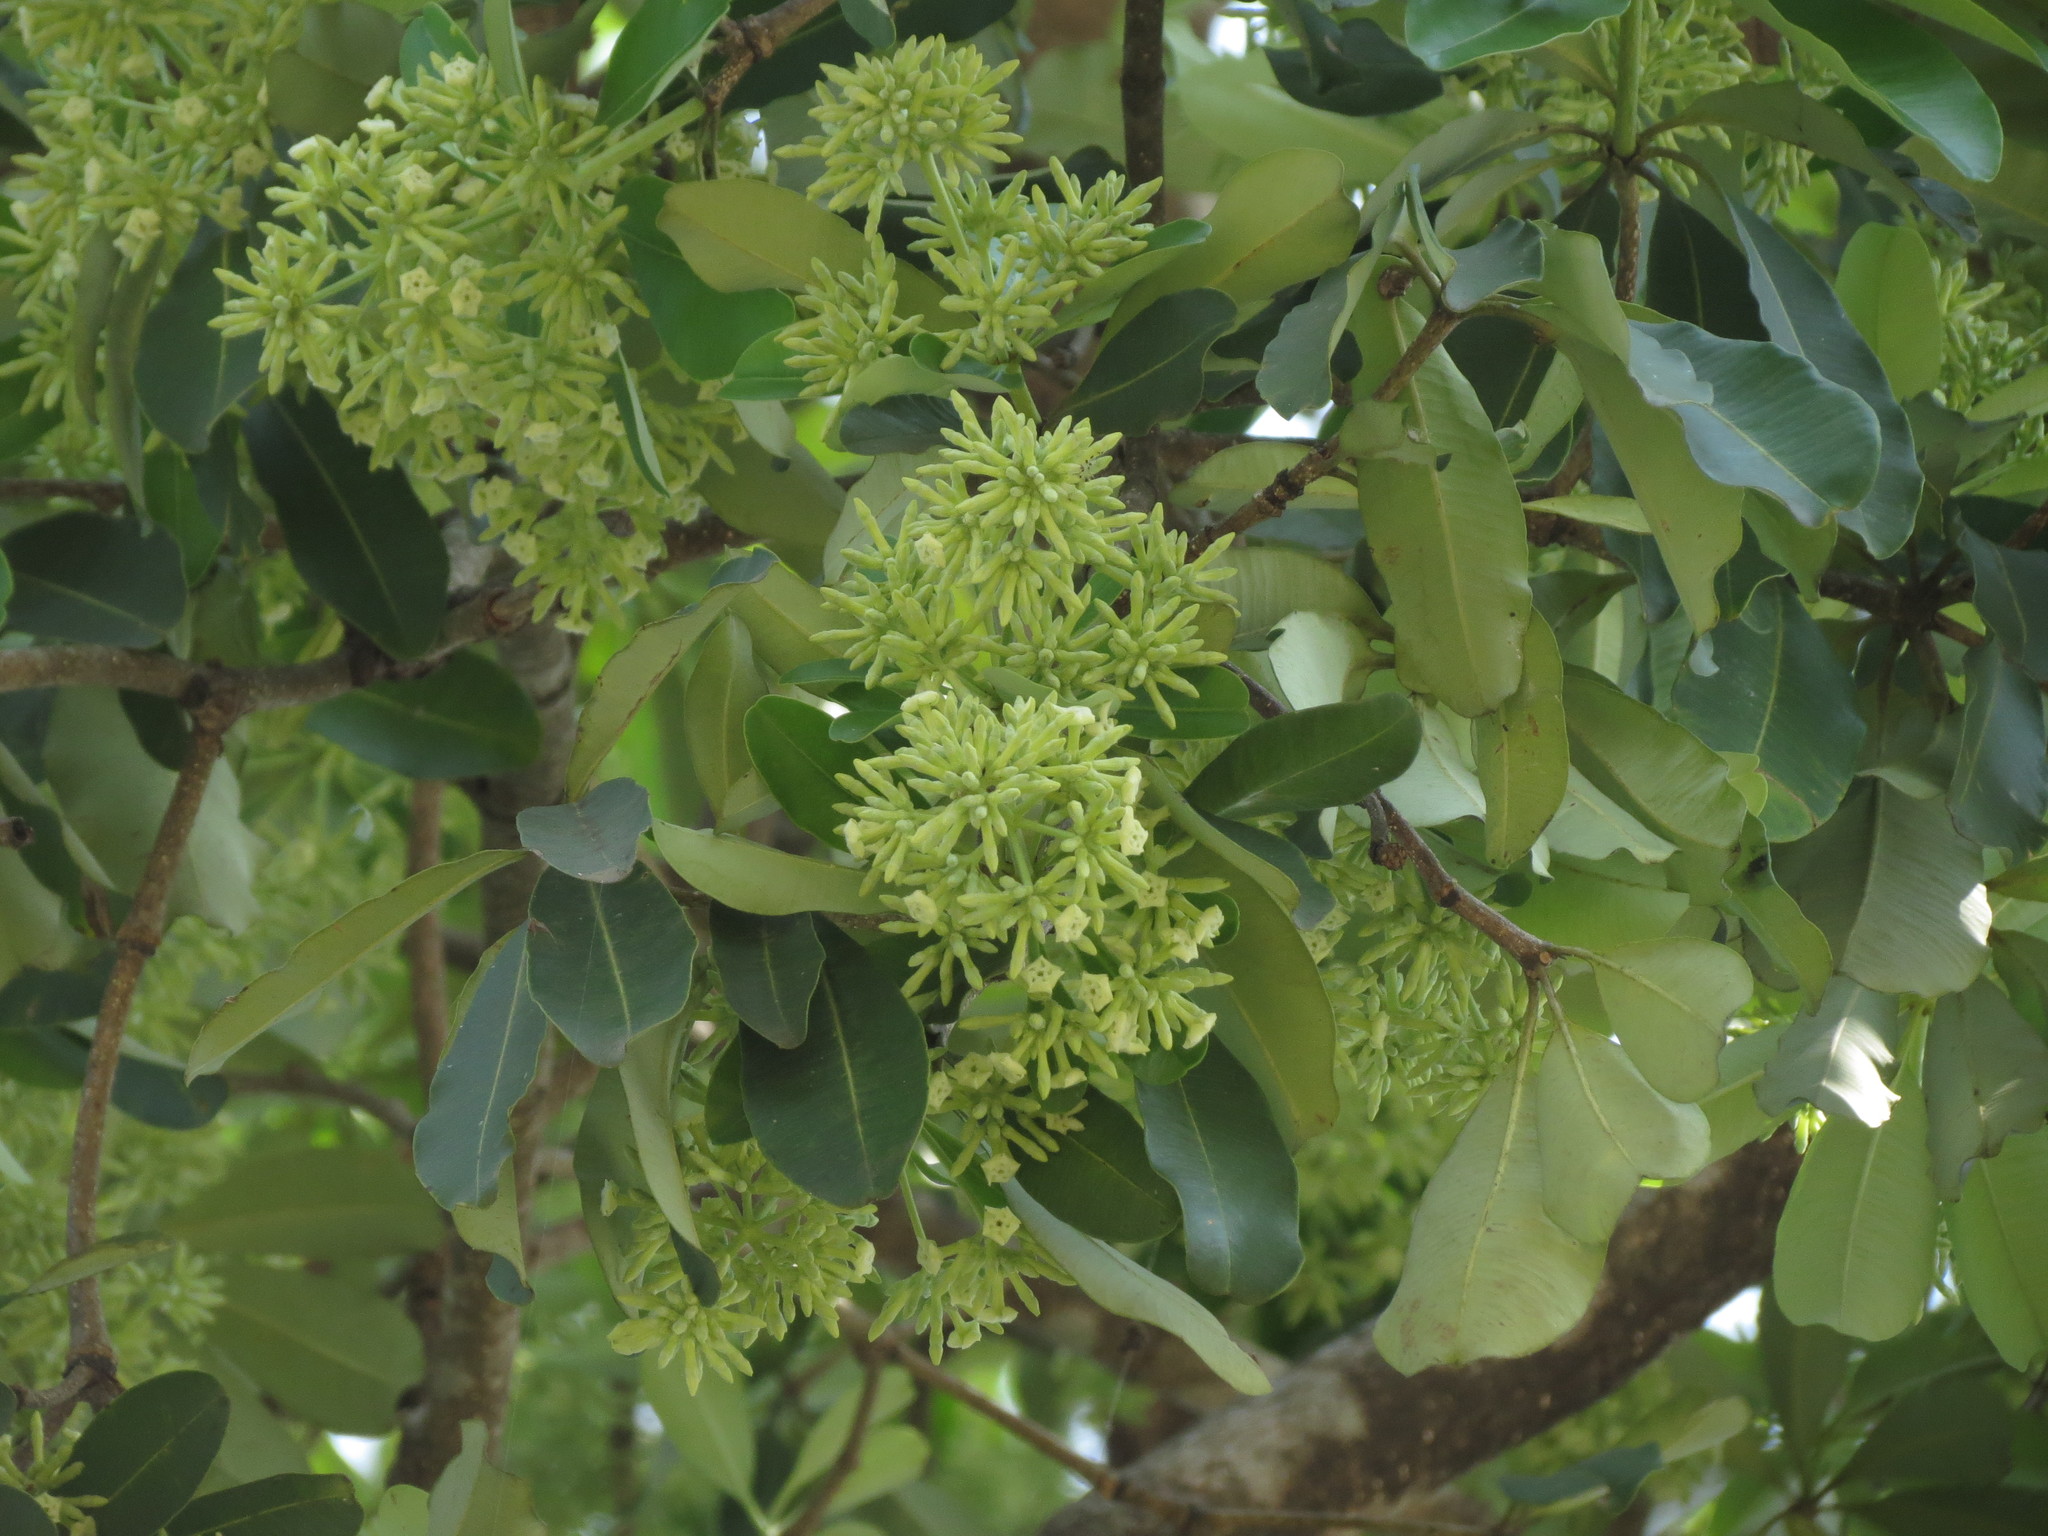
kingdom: Plantae
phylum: Tracheophyta
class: Magnoliopsida
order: Gentianales
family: Apocynaceae
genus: Alstonia
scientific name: Alstonia scholaris
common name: White cheesewood
